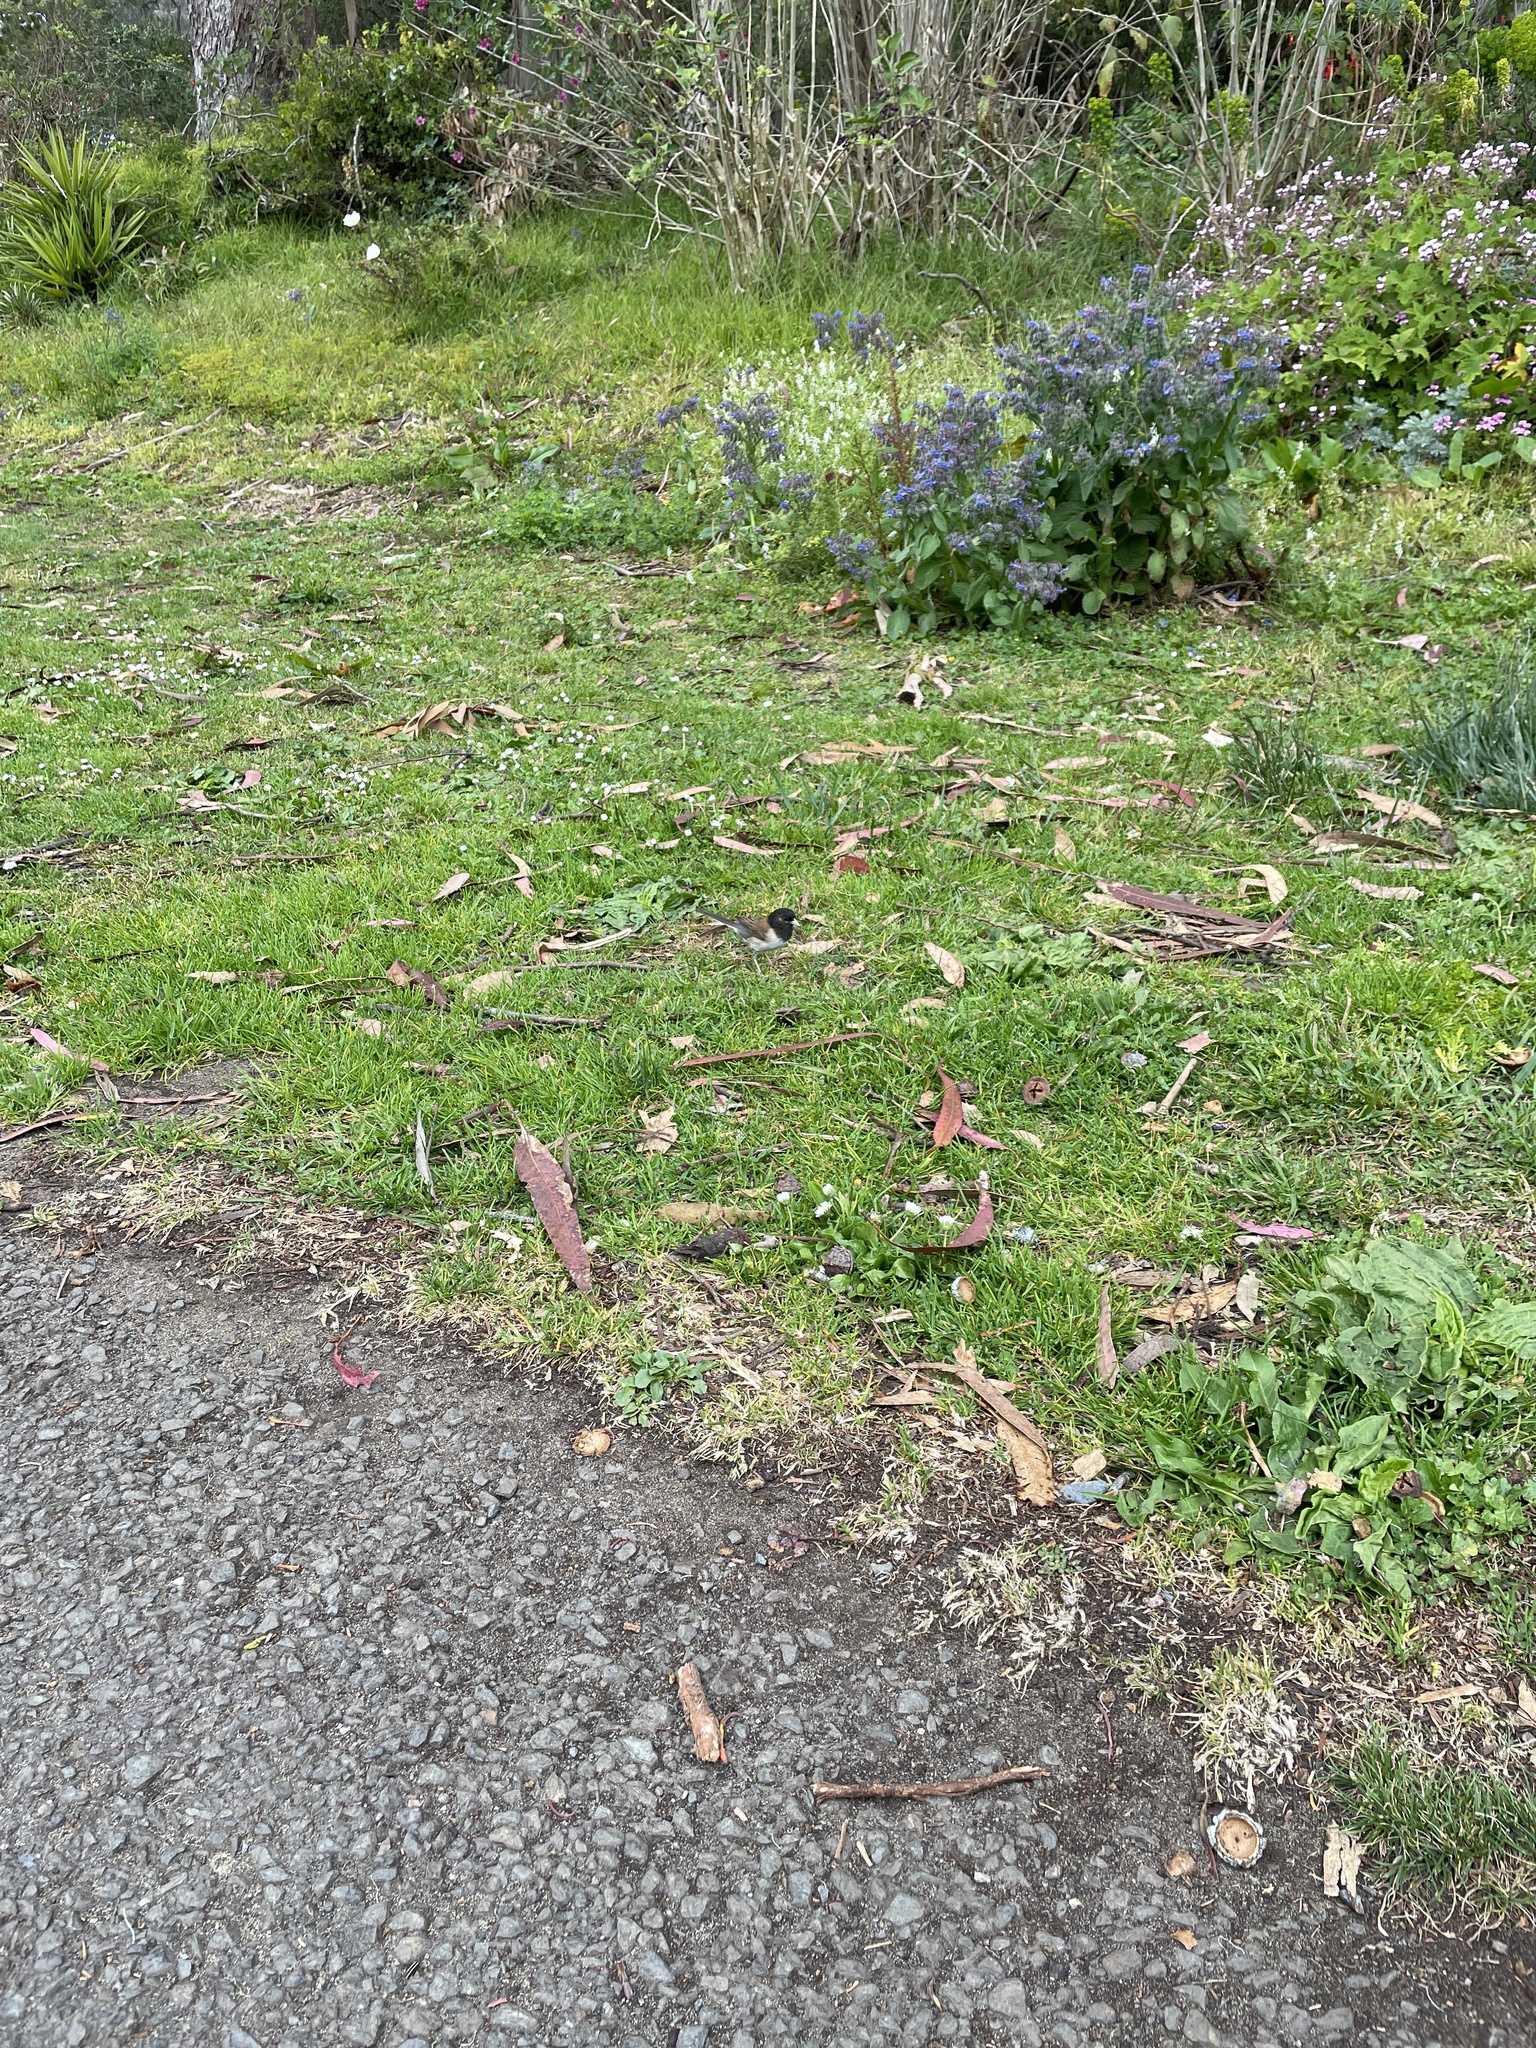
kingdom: Animalia
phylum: Chordata
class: Aves
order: Passeriformes
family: Passerellidae
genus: Junco
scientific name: Junco hyemalis
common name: Dark-eyed junco
